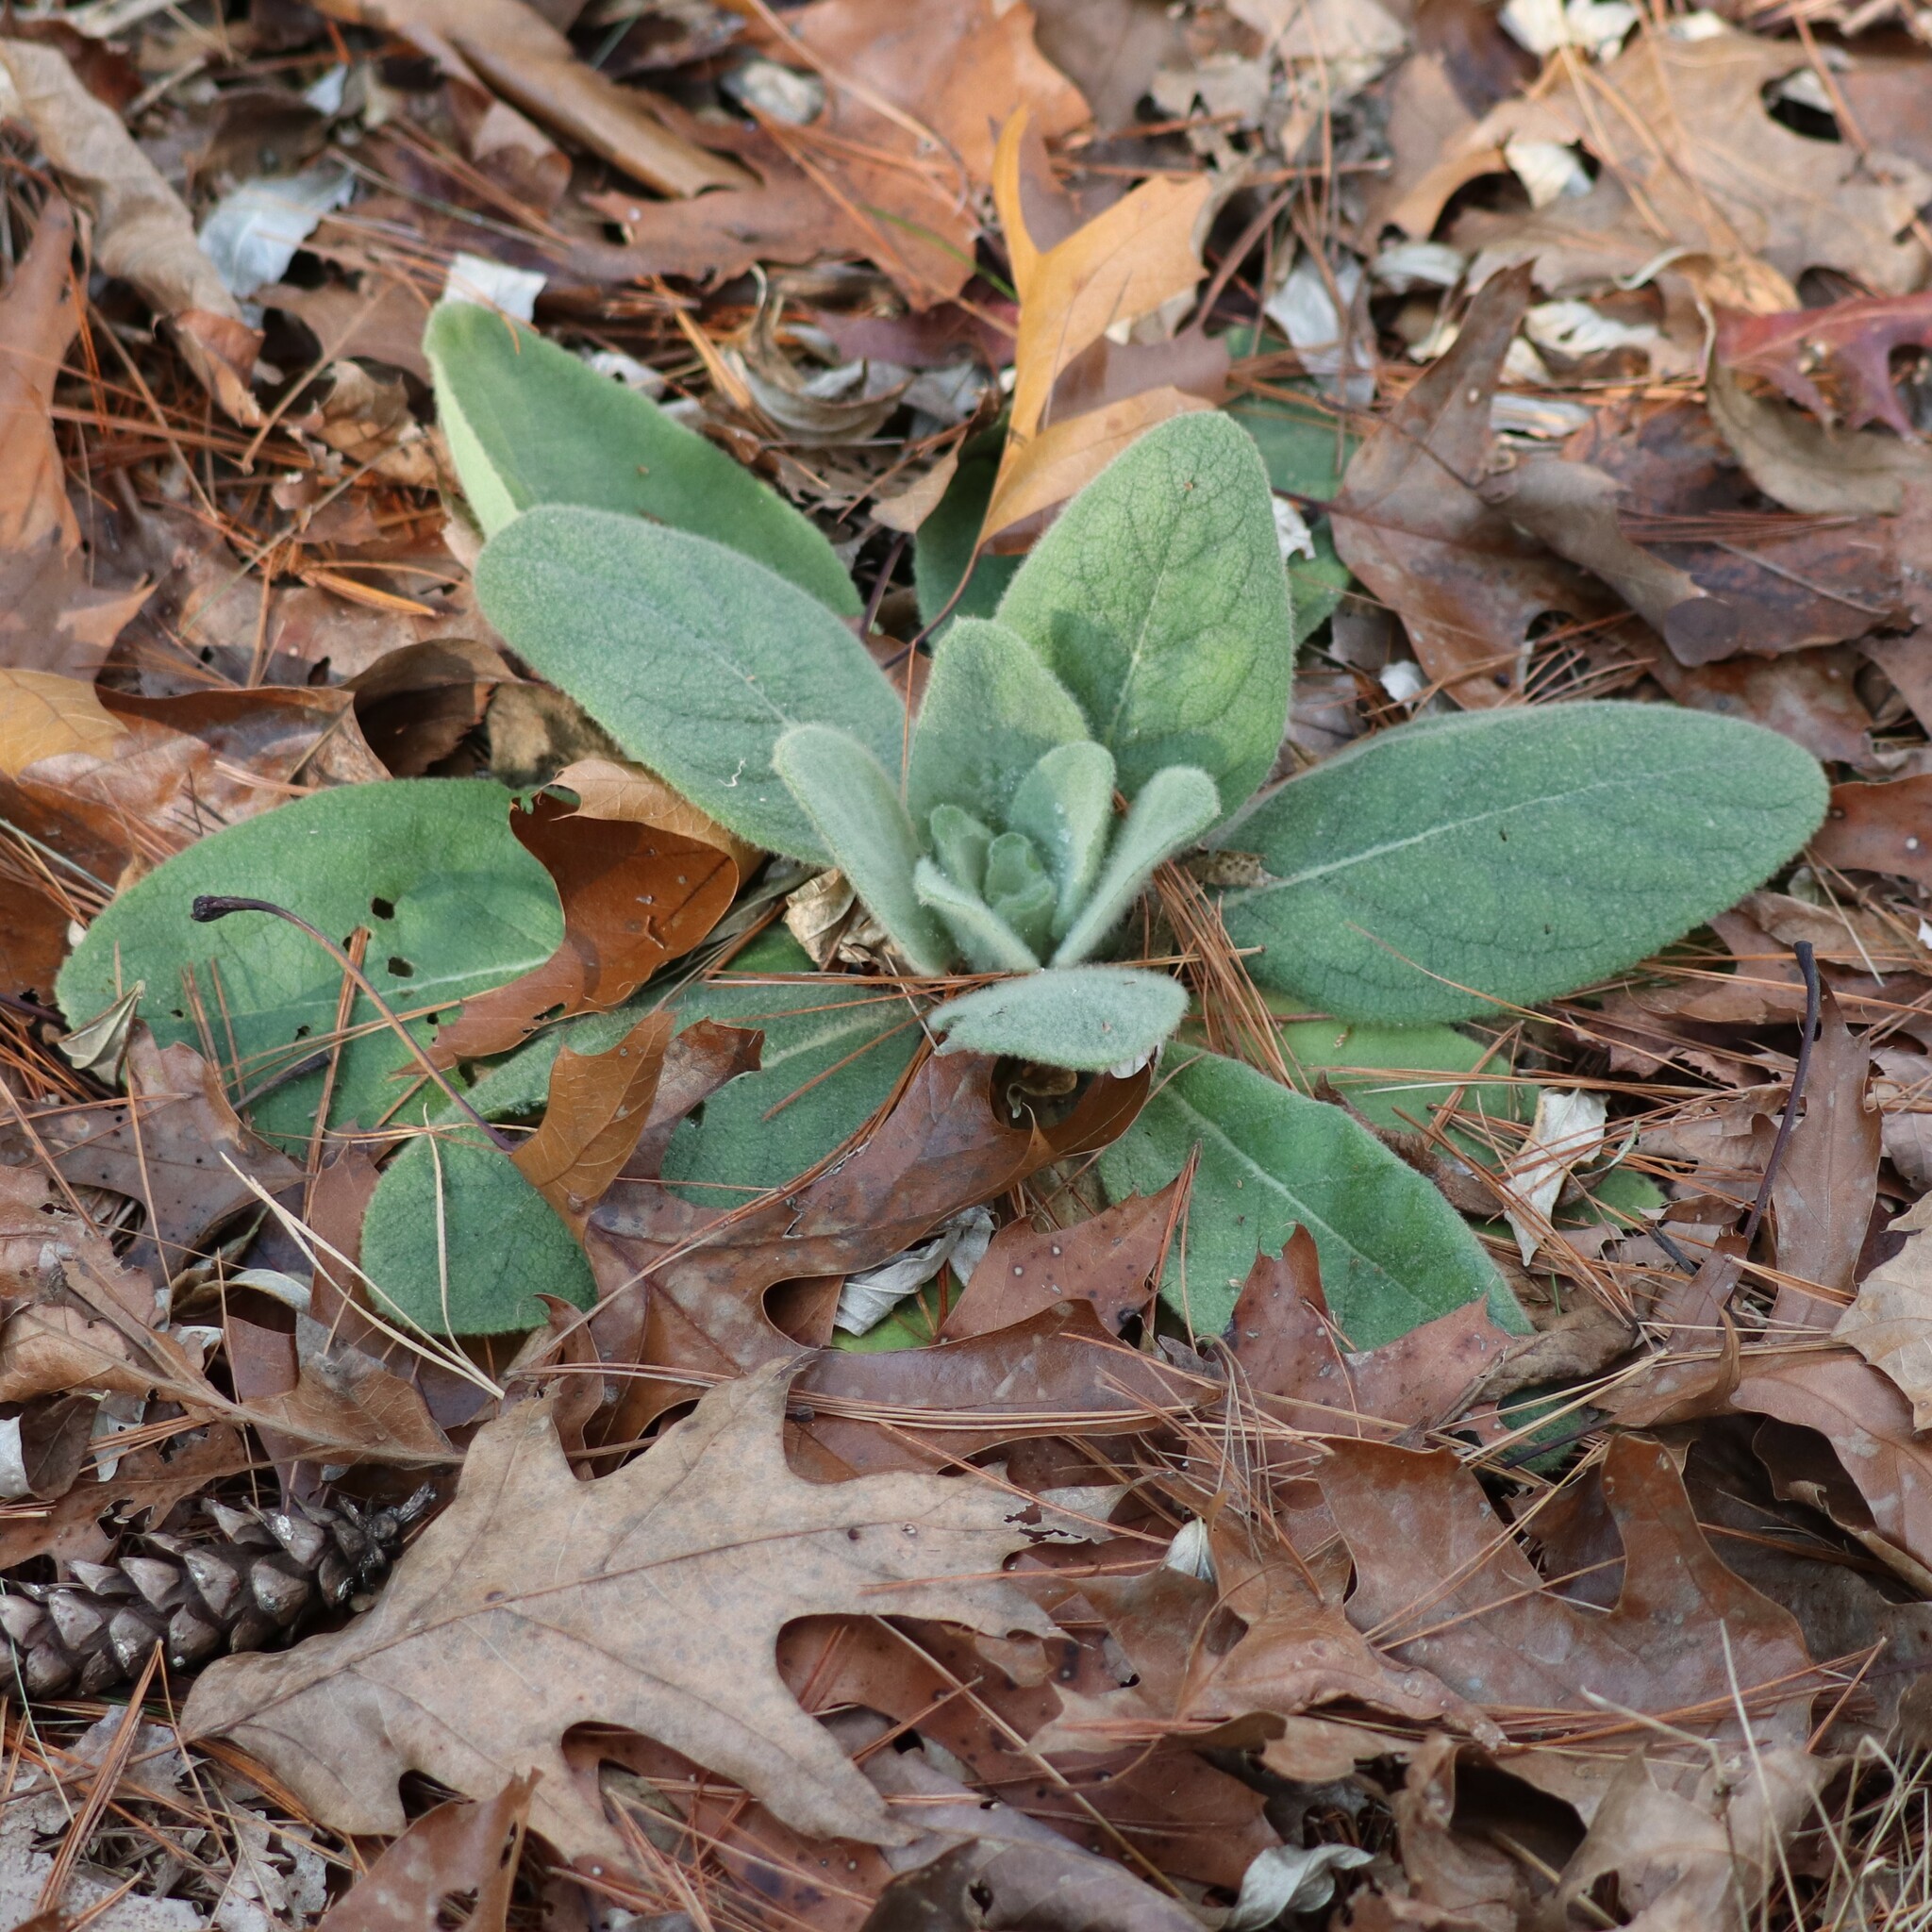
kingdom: Plantae
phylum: Tracheophyta
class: Magnoliopsida
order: Lamiales
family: Scrophulariaceae
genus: Verbascum
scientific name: Verbascum thapsus
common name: Common mullein
